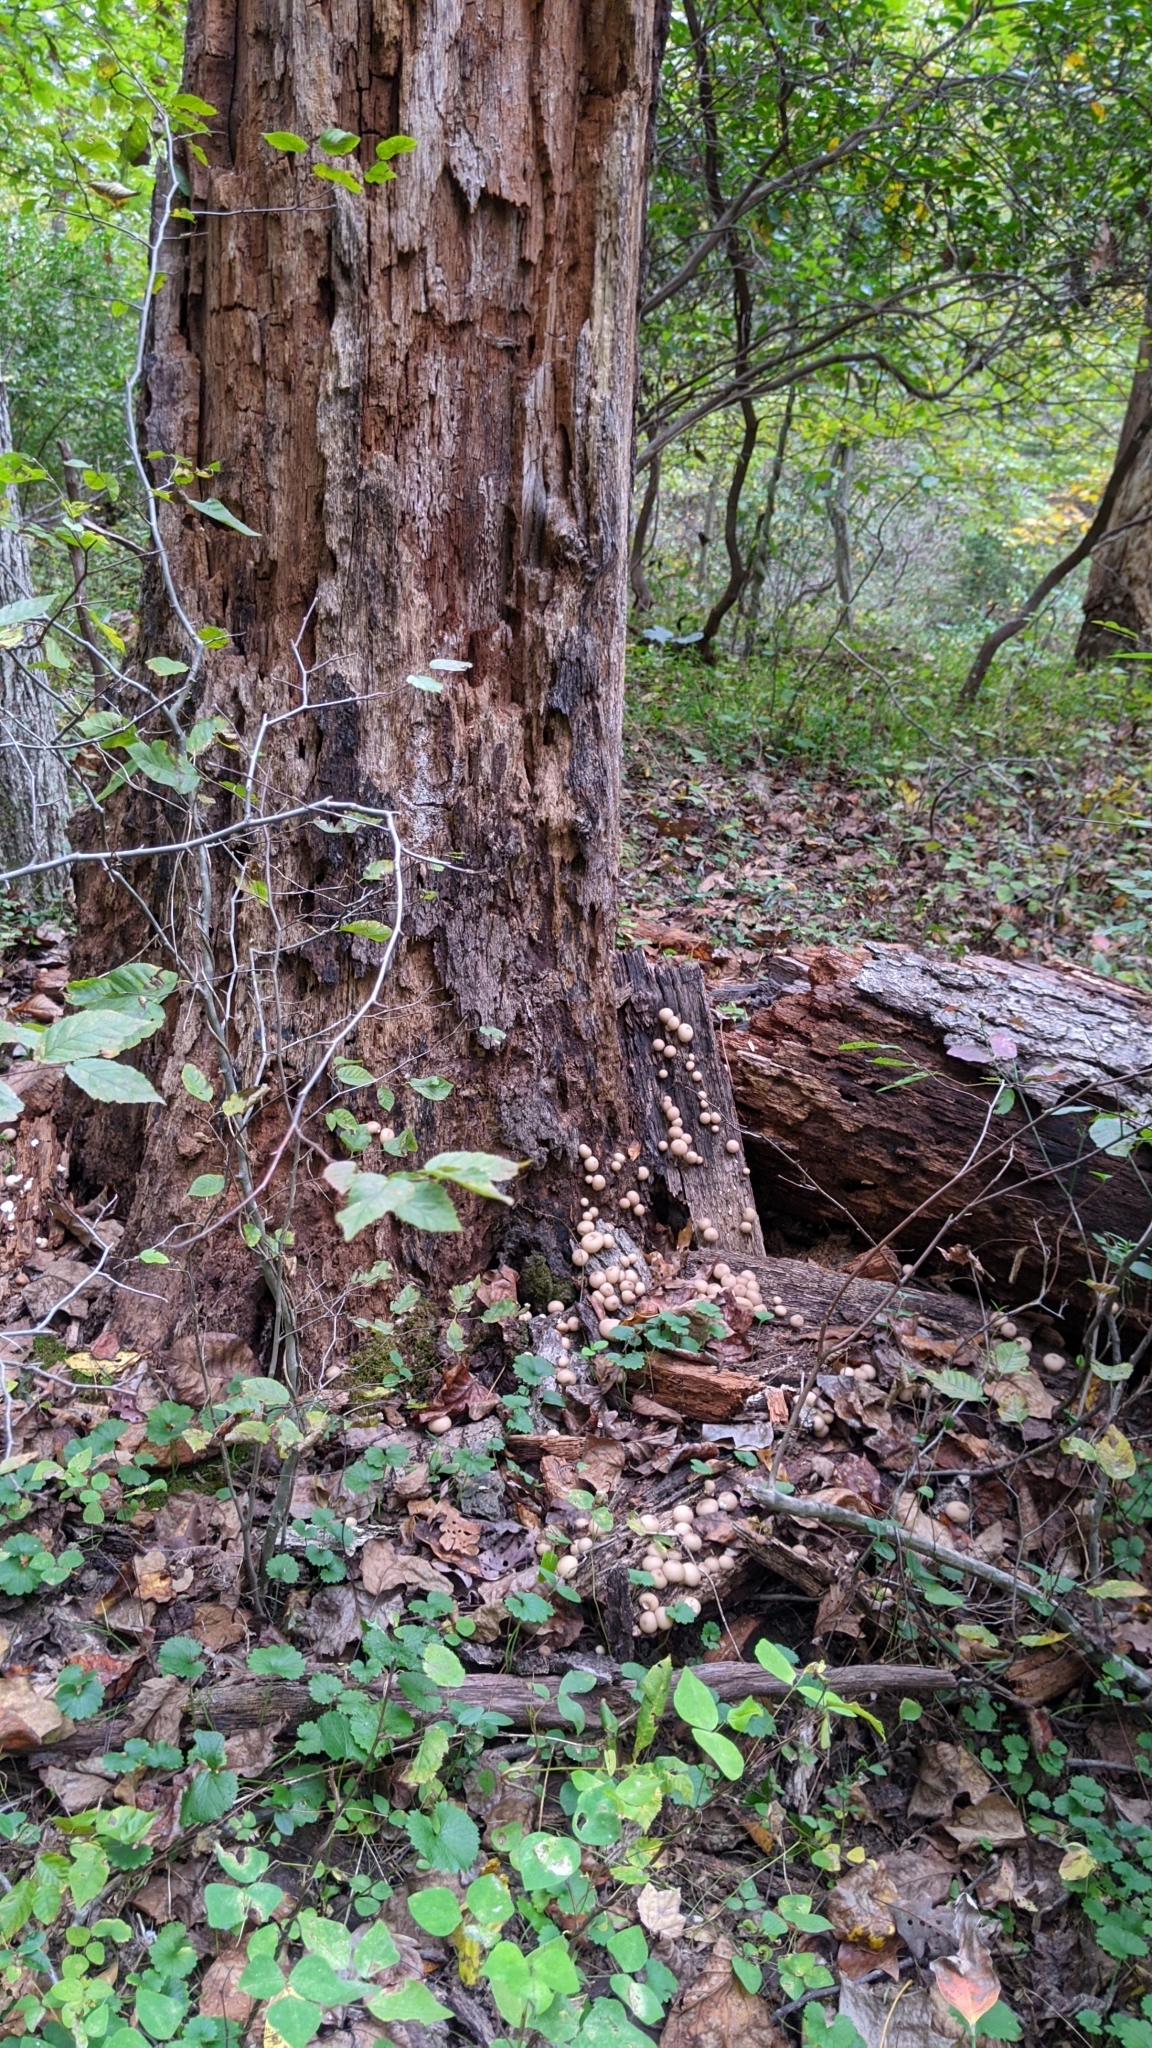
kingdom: Fungi
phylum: Basidiomycota
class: Agaricomycetes
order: Agaricales
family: Lycoperdaceae
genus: Apioperdon
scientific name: Apioperdon pyriforme
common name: Pear-shaped puffball
